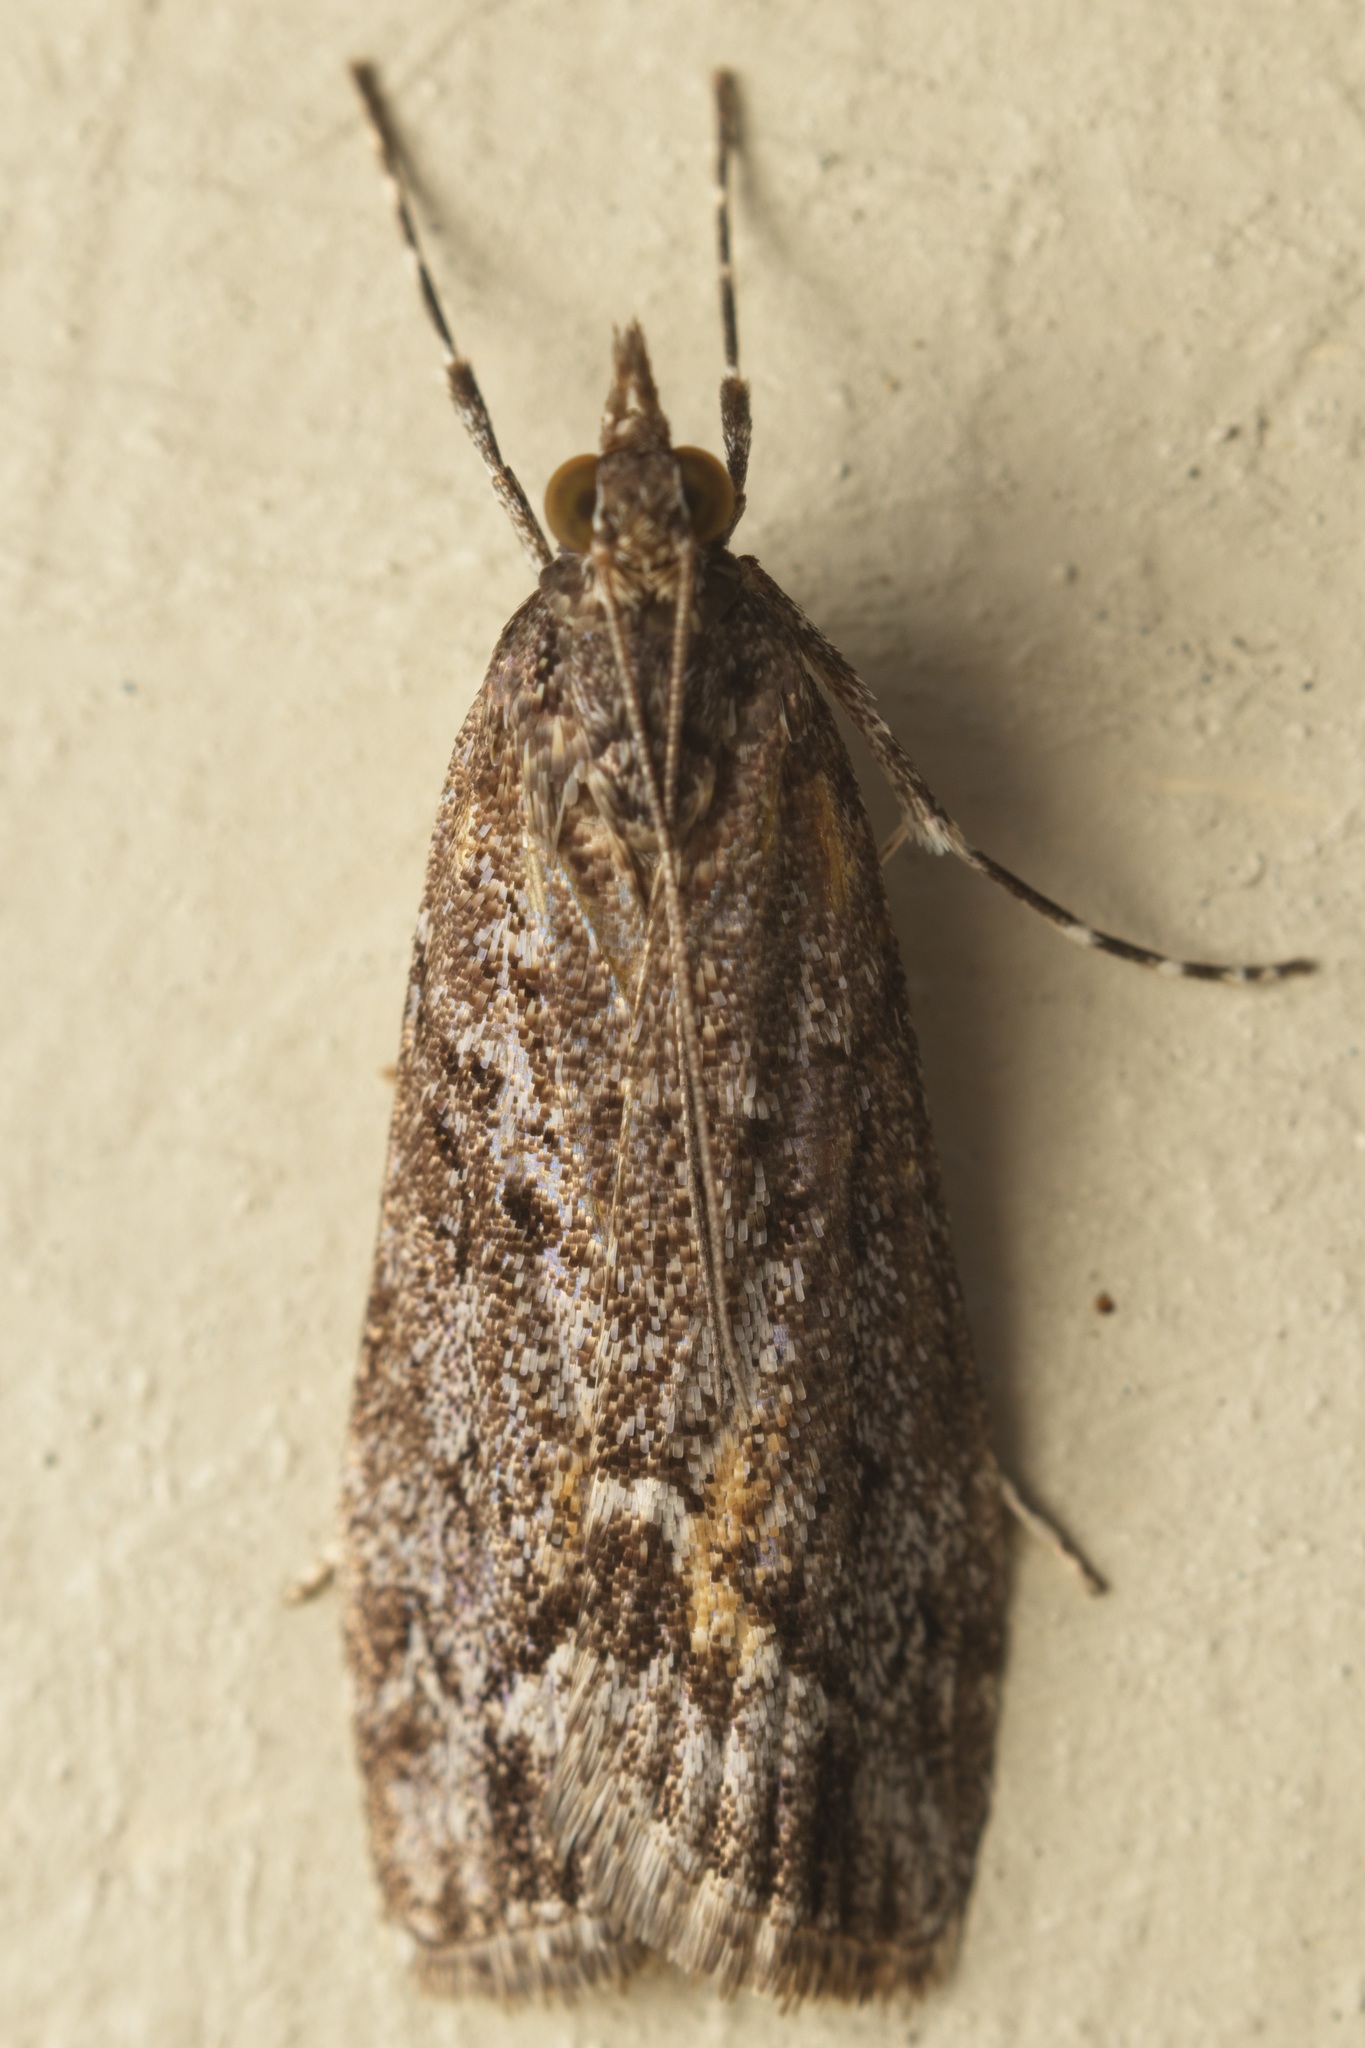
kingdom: Animalia
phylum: Arthropoda
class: Insecta
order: Lepidoptera
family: Crambidae
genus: Eudonia
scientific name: Eudonia submarginalis
